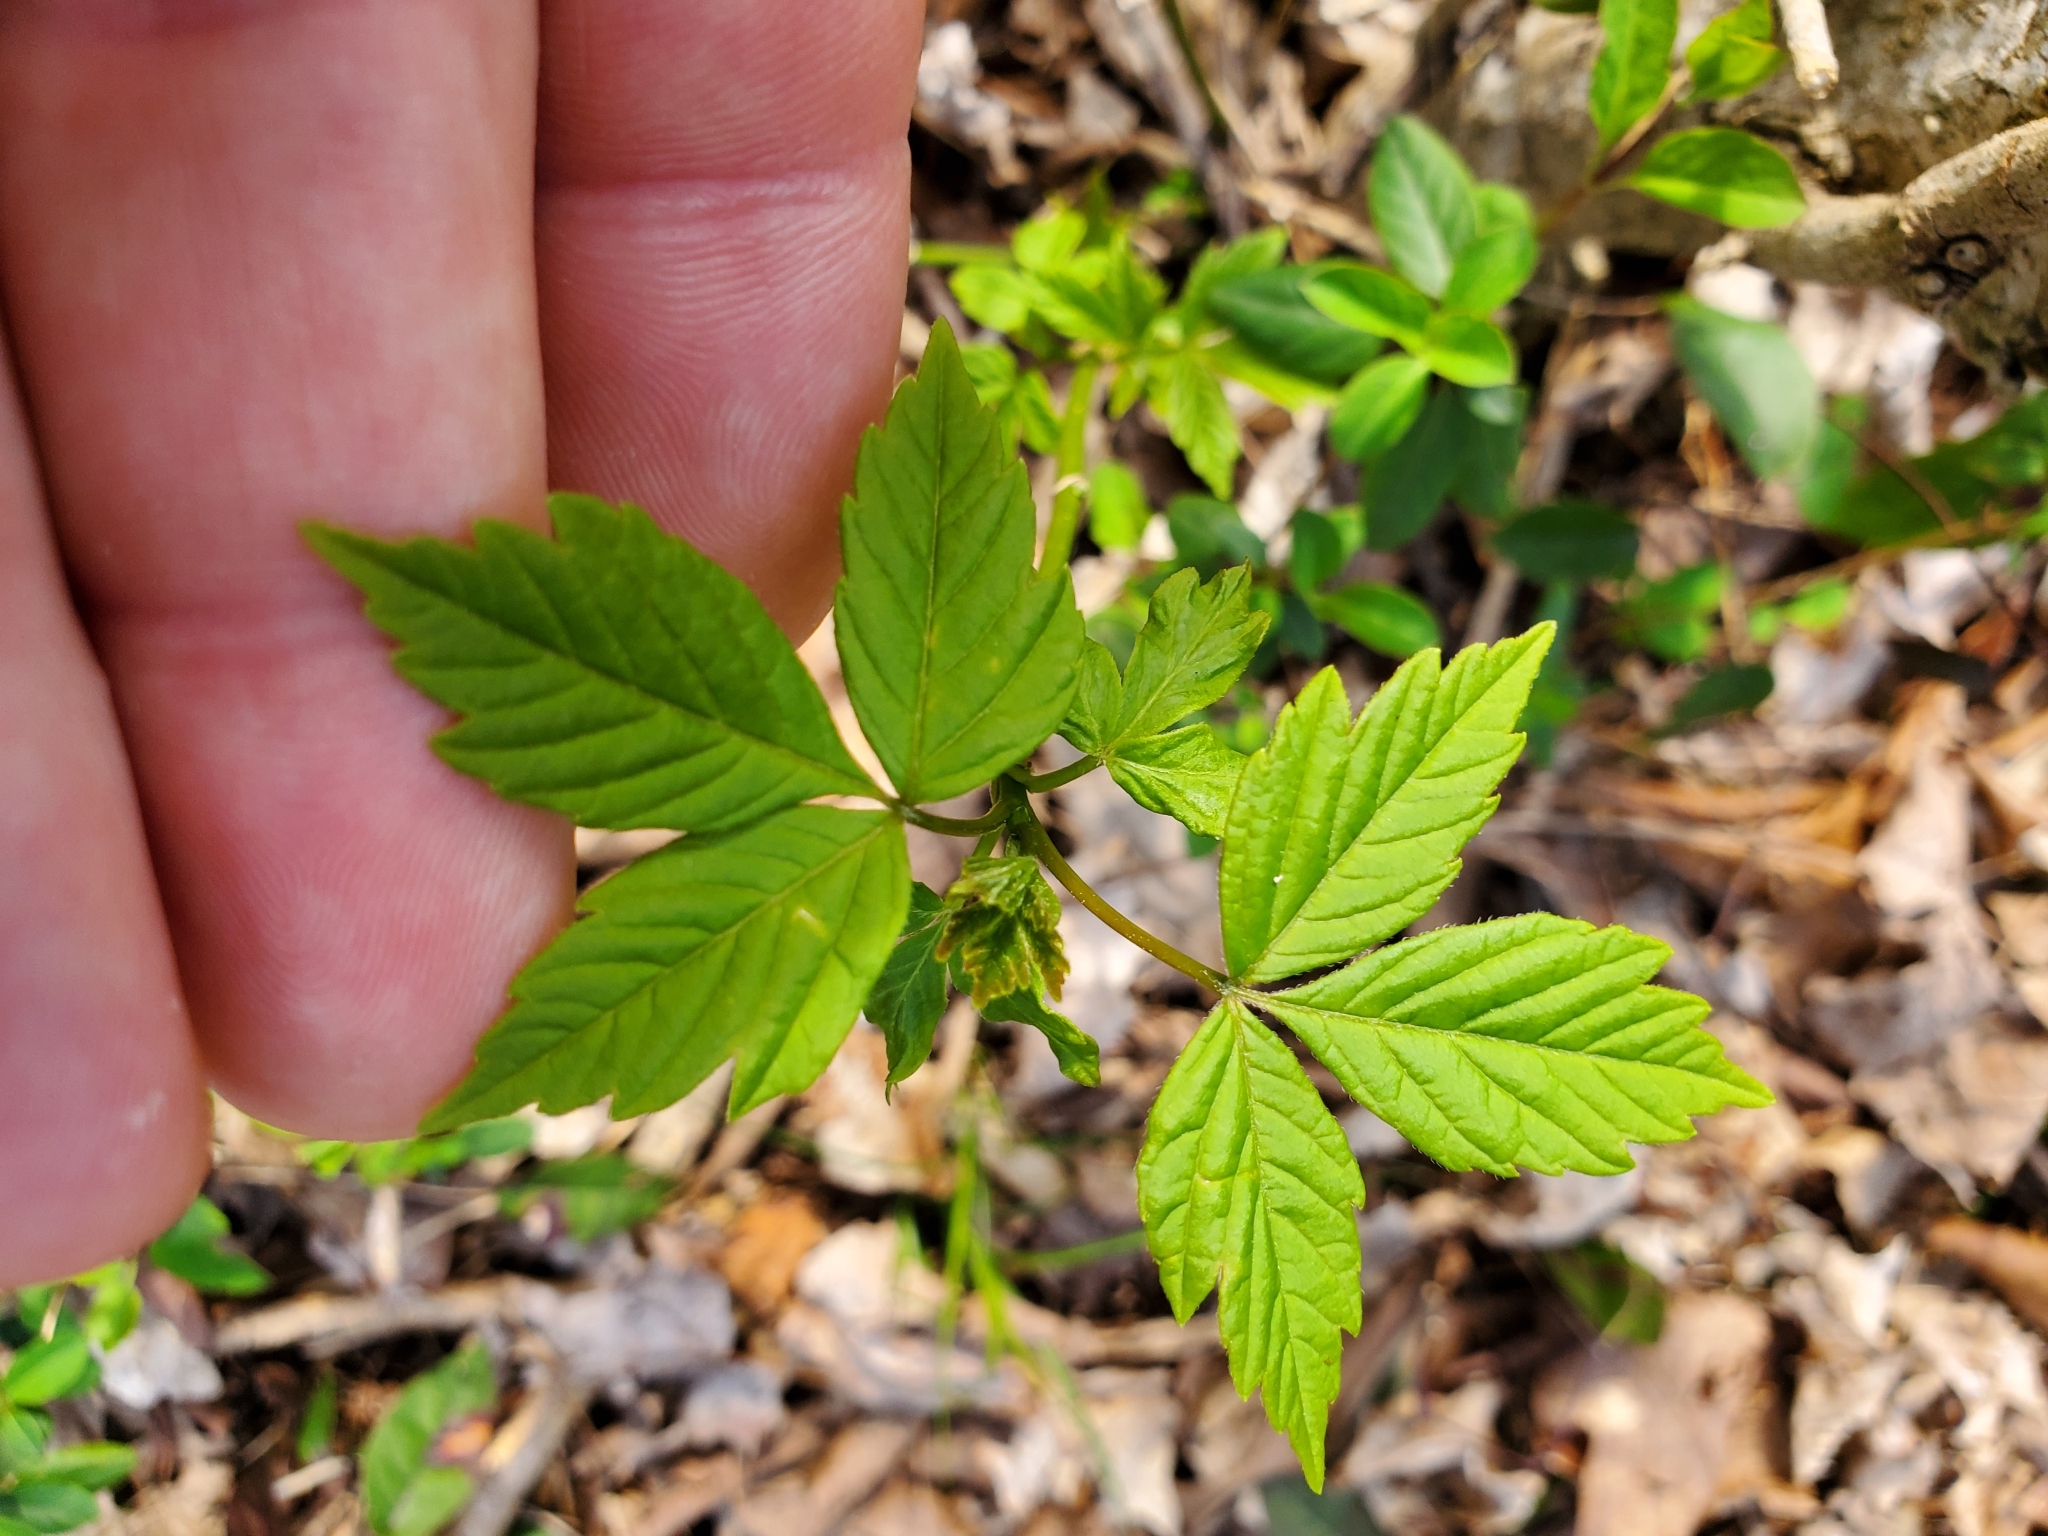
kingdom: Plantae
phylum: Tracheophyta
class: Magnoliopsida
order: Sapindales
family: Sapindaceae
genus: Acer
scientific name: Acer negundo
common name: Ashleaf maple
